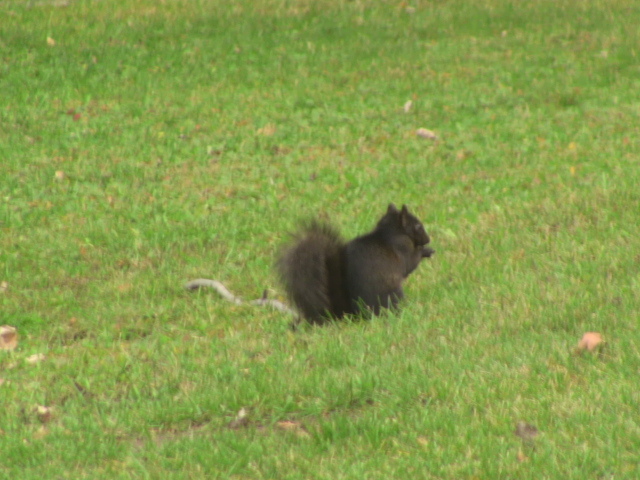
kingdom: Animalia
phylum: Chordata
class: Mammalia
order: Rodentia
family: Sciuridae
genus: Sciurus
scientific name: Sciurus carolinensis
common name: Eastern gray squirrel
